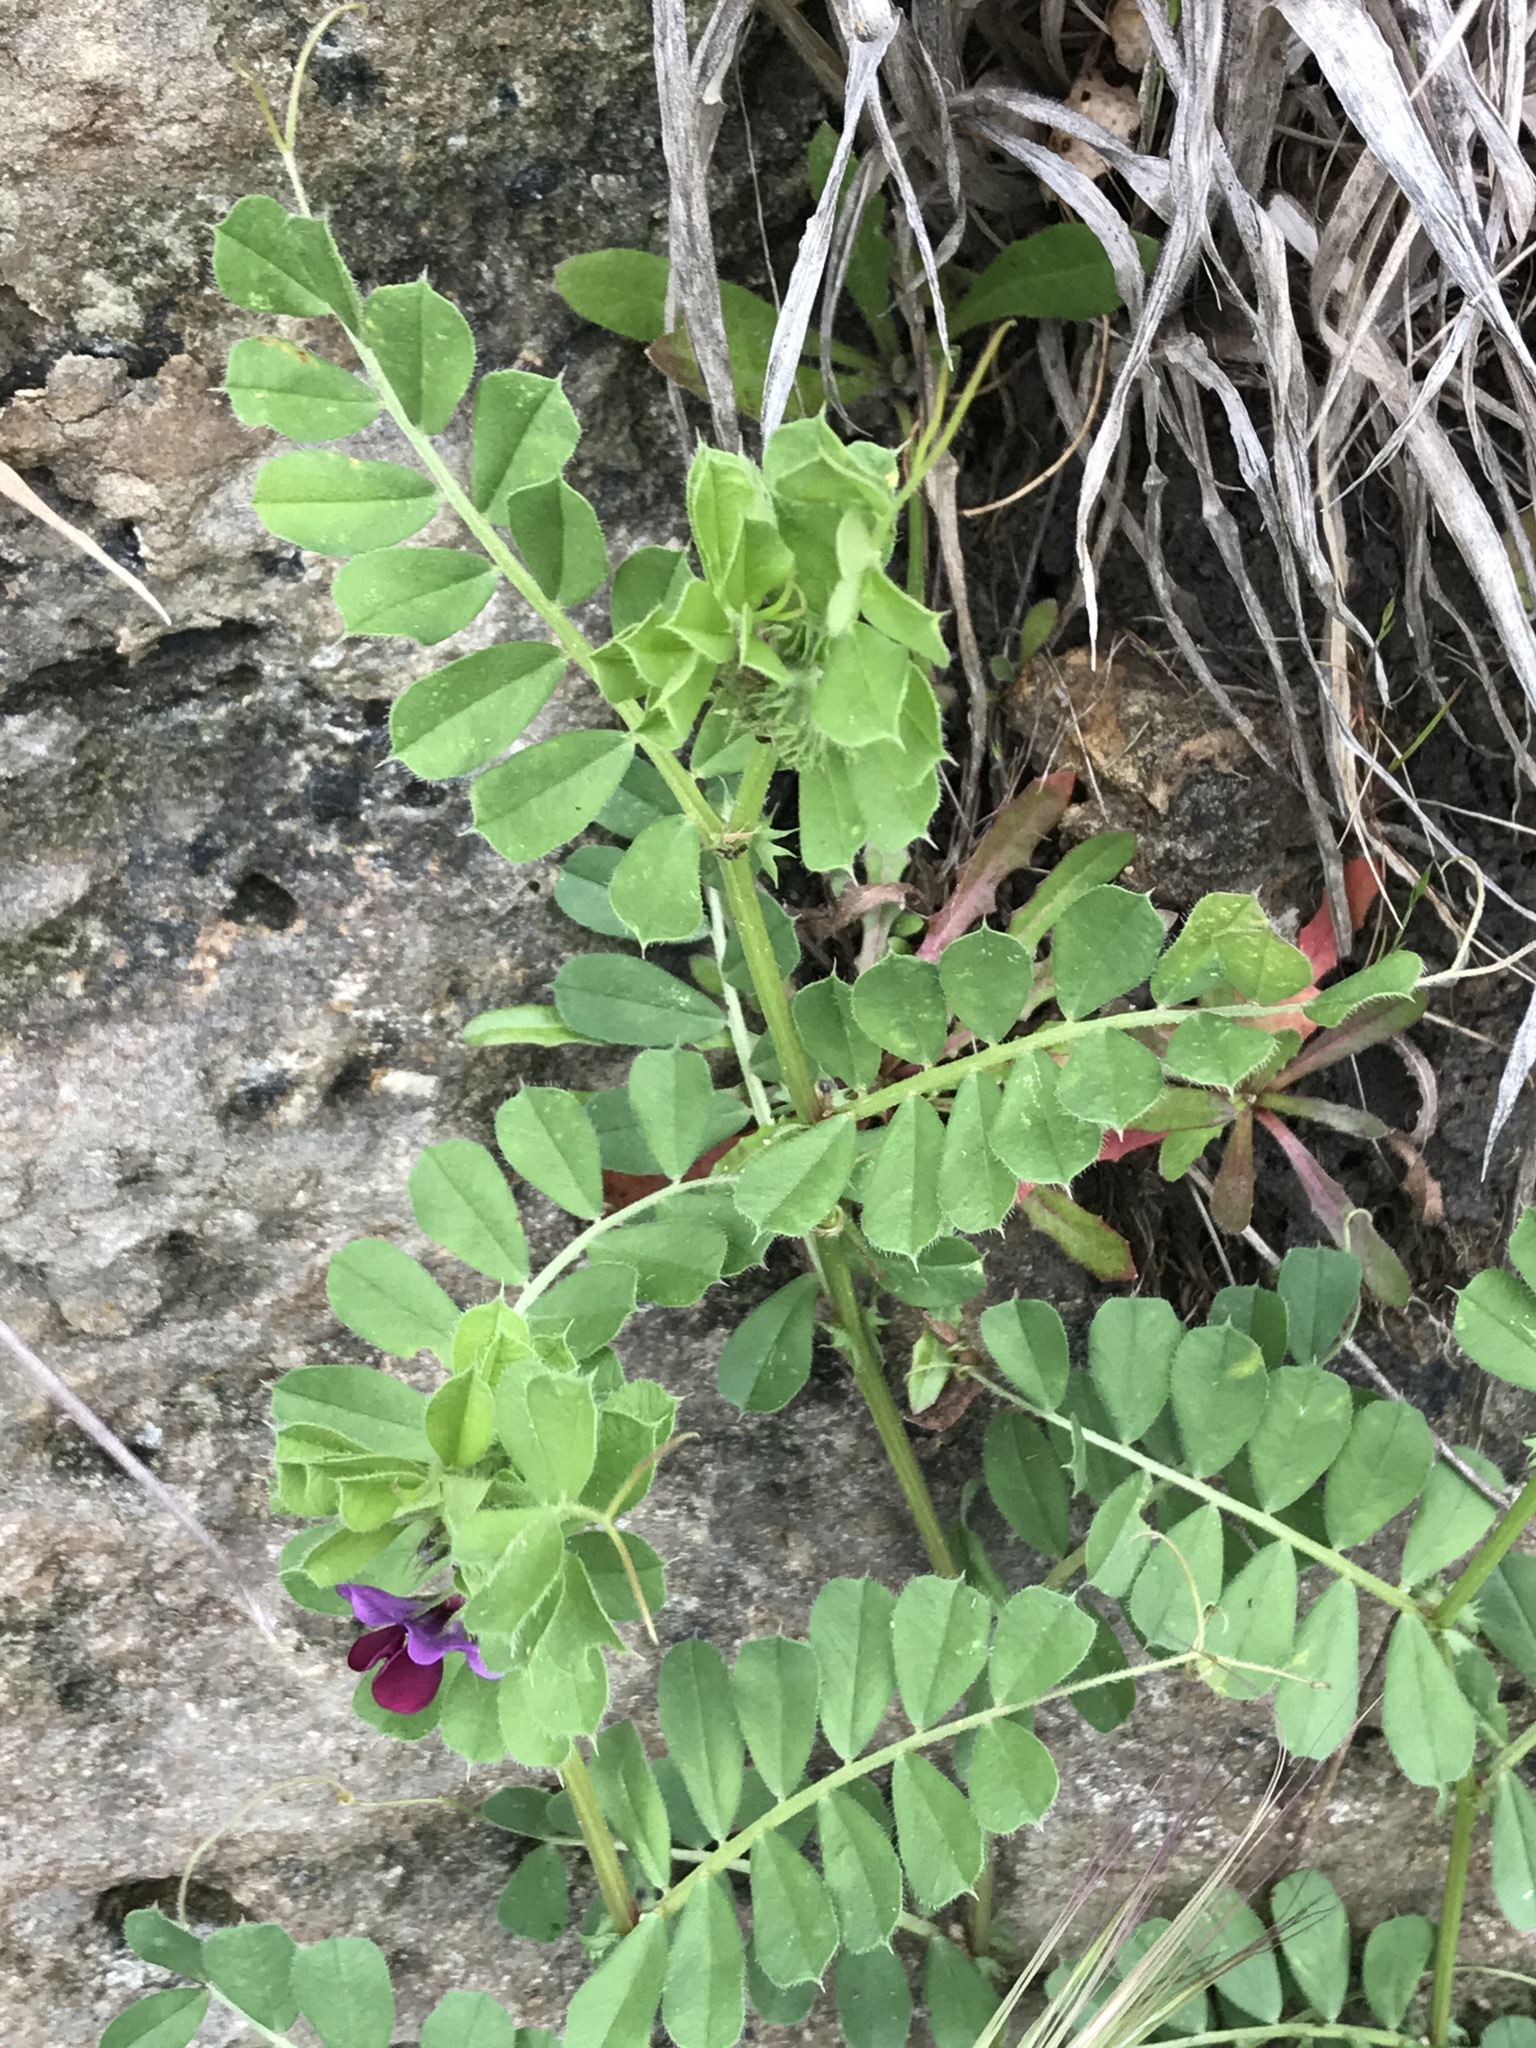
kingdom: Plantae
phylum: Tracheophyta
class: Magnoliopsida
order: Fabales
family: Fabaceae
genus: Vicia
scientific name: Vicia sativa
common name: Garden vetch
